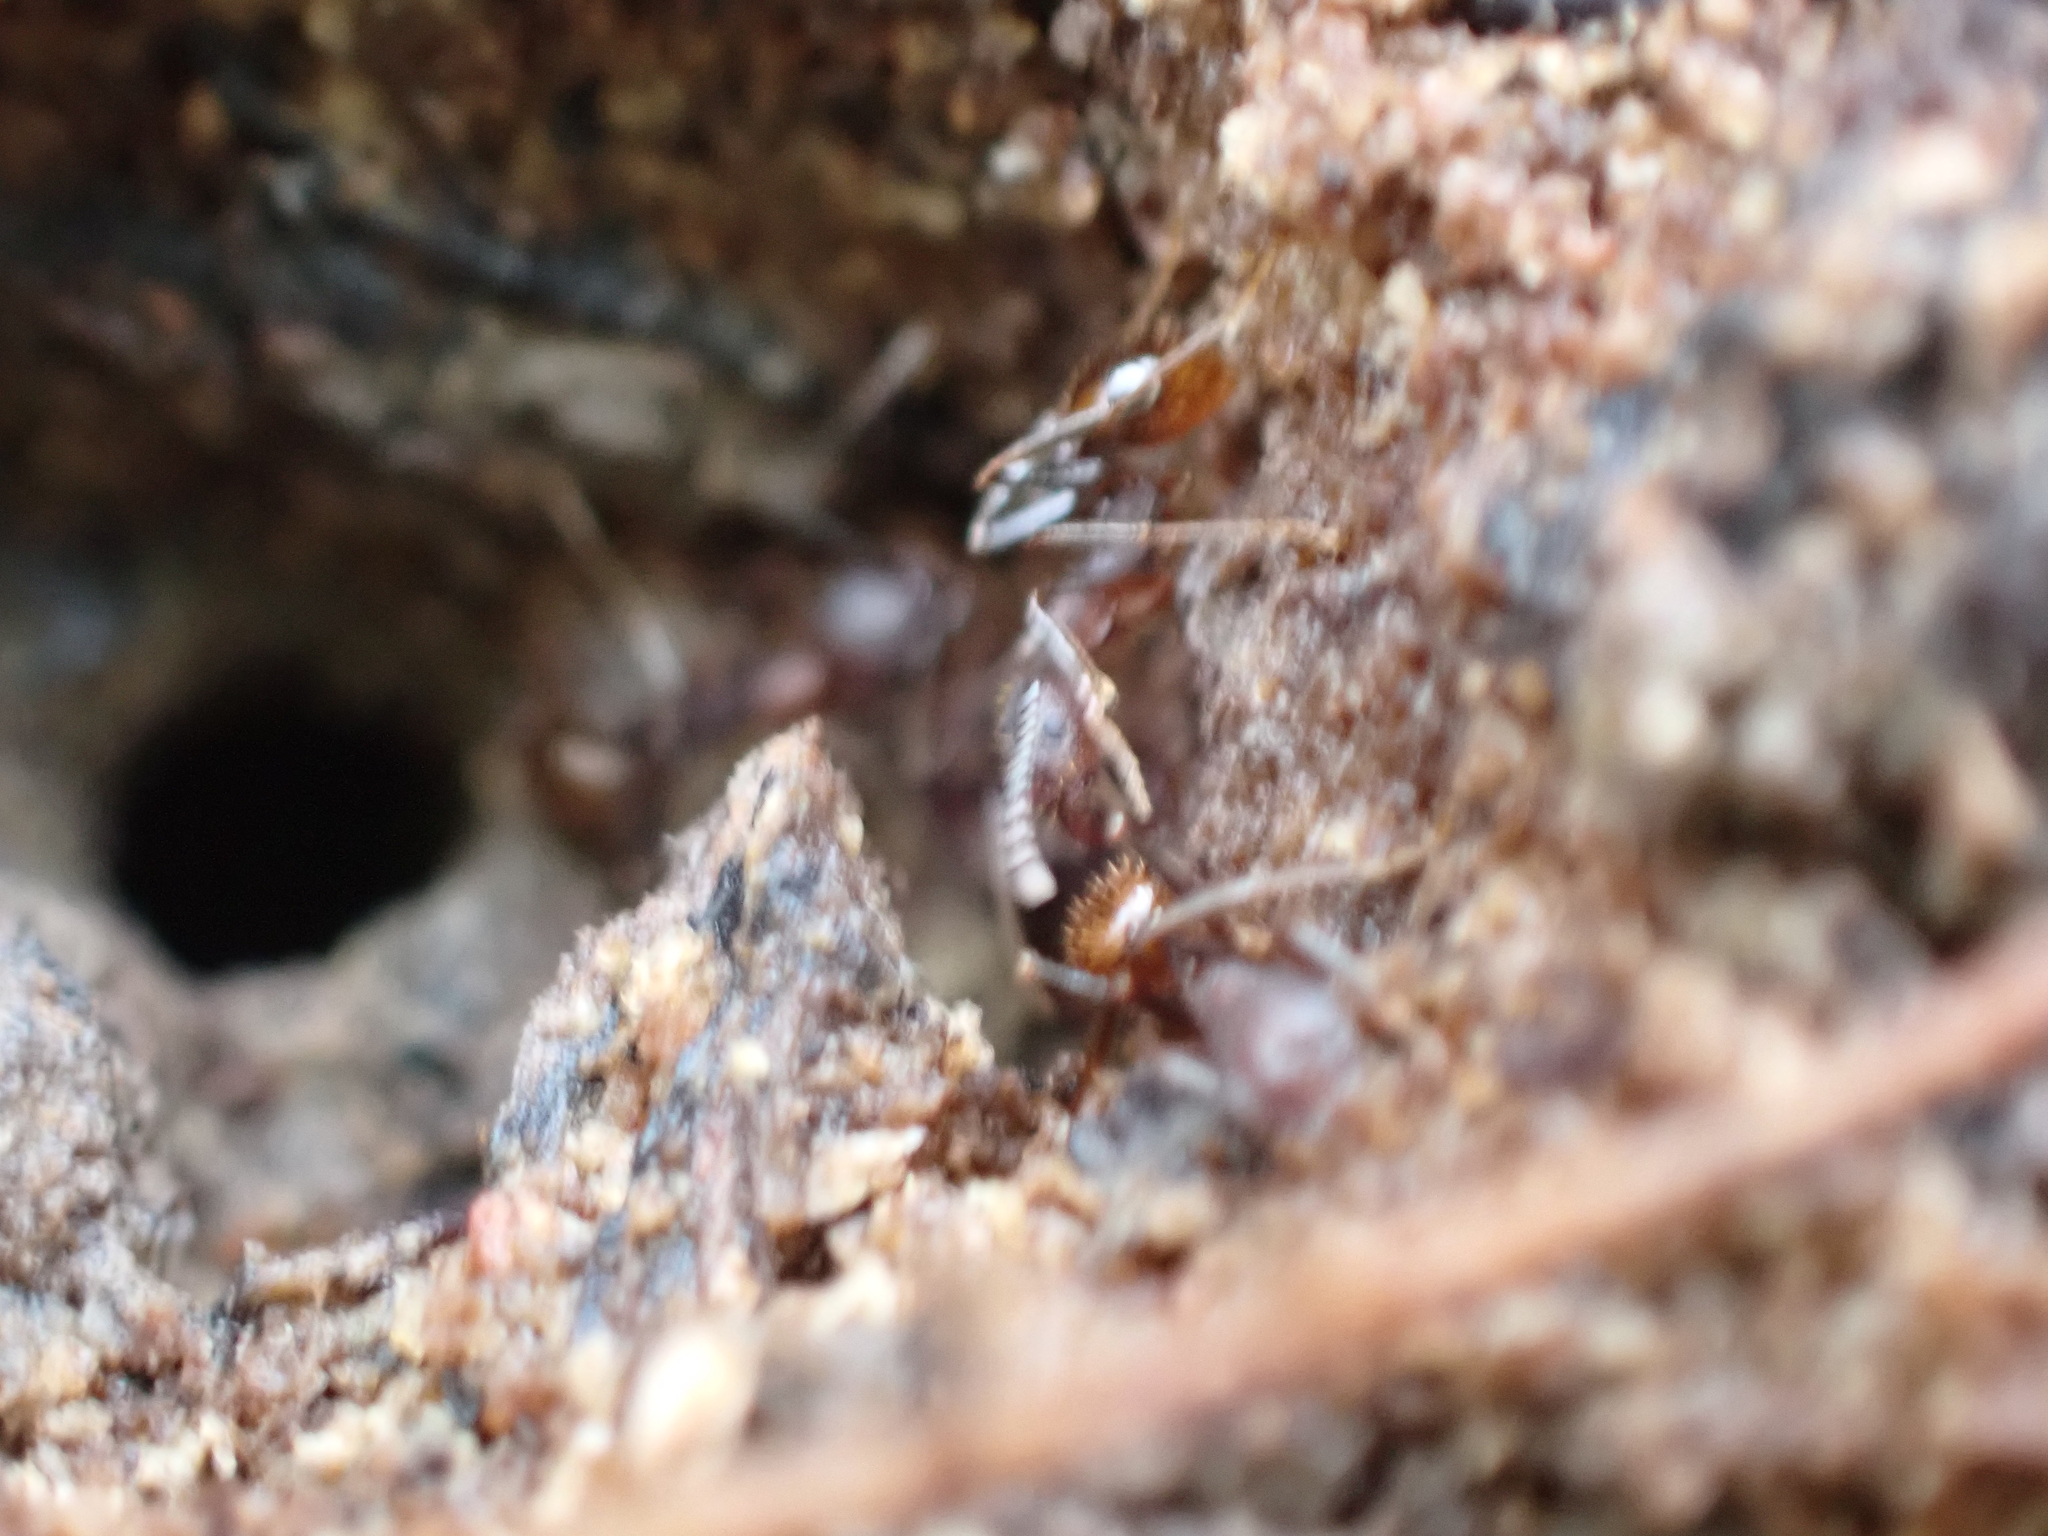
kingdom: Animalia
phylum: Arthropoda
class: Insecta
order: Hymenoptera
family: Formicidae
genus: Aphaenogaster
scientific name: Aphaenogaster fulva
